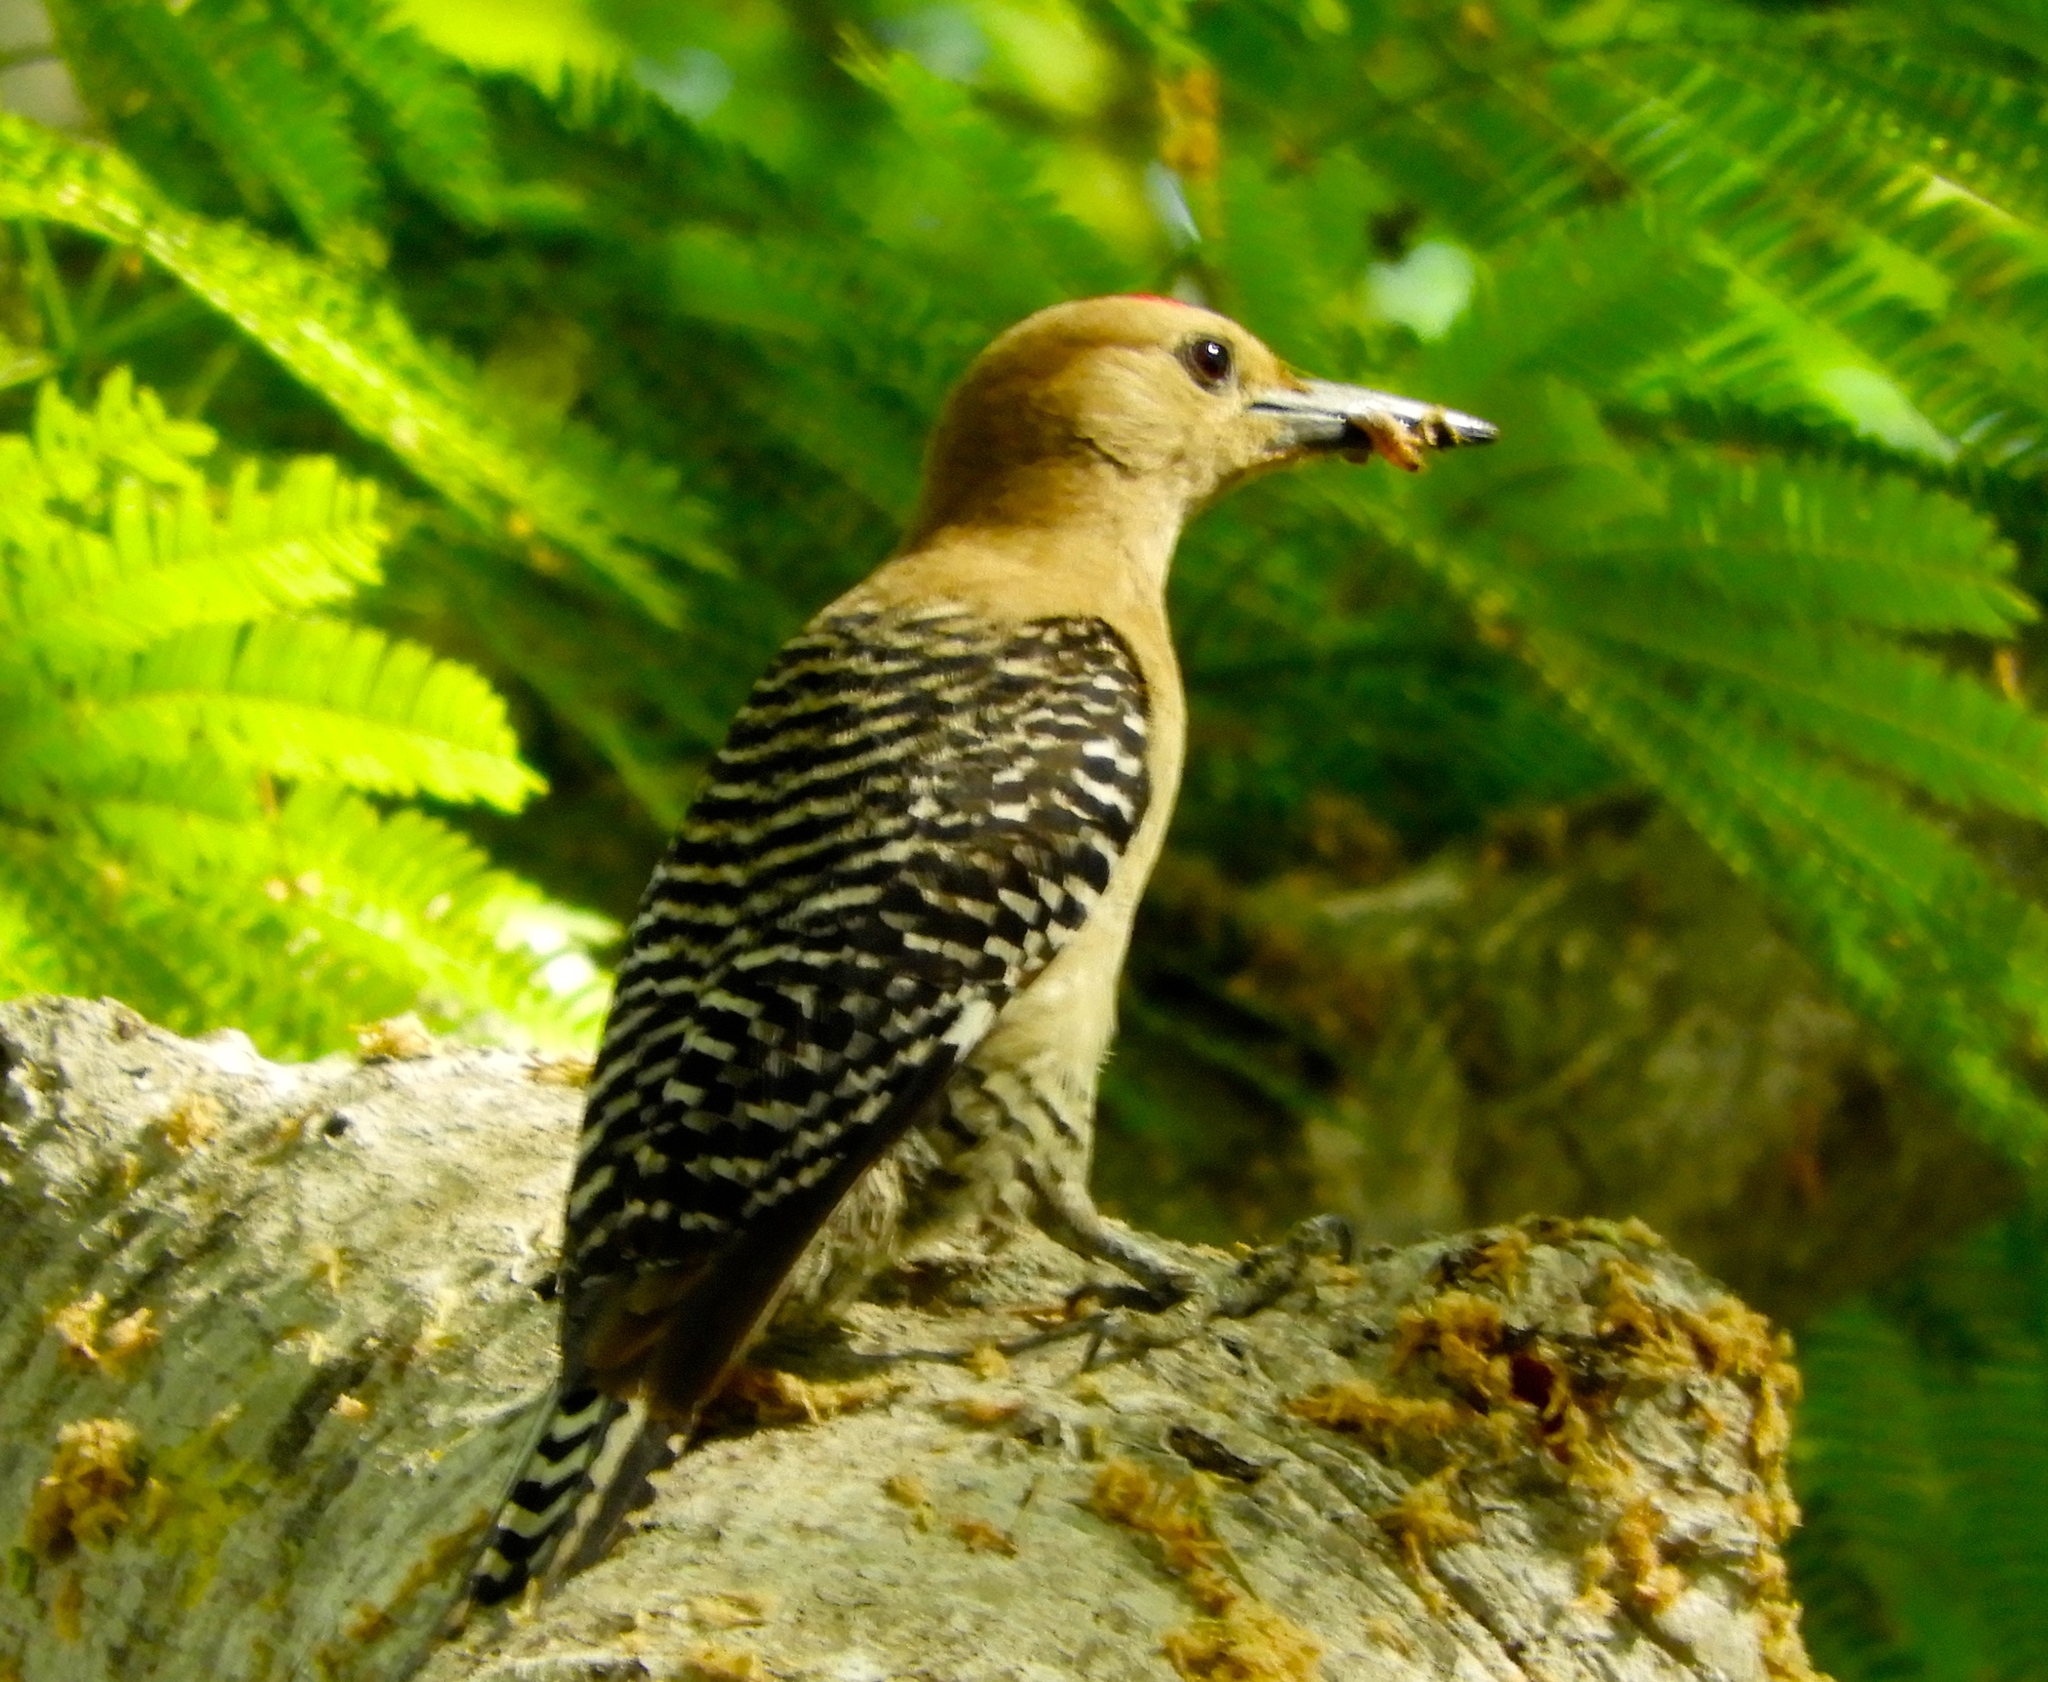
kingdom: Animalia
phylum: Chordata
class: Aves
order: Piciformes
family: Picidae
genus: Melanerpes
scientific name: Melanerpes uropygialis
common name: Gila woodpecker
